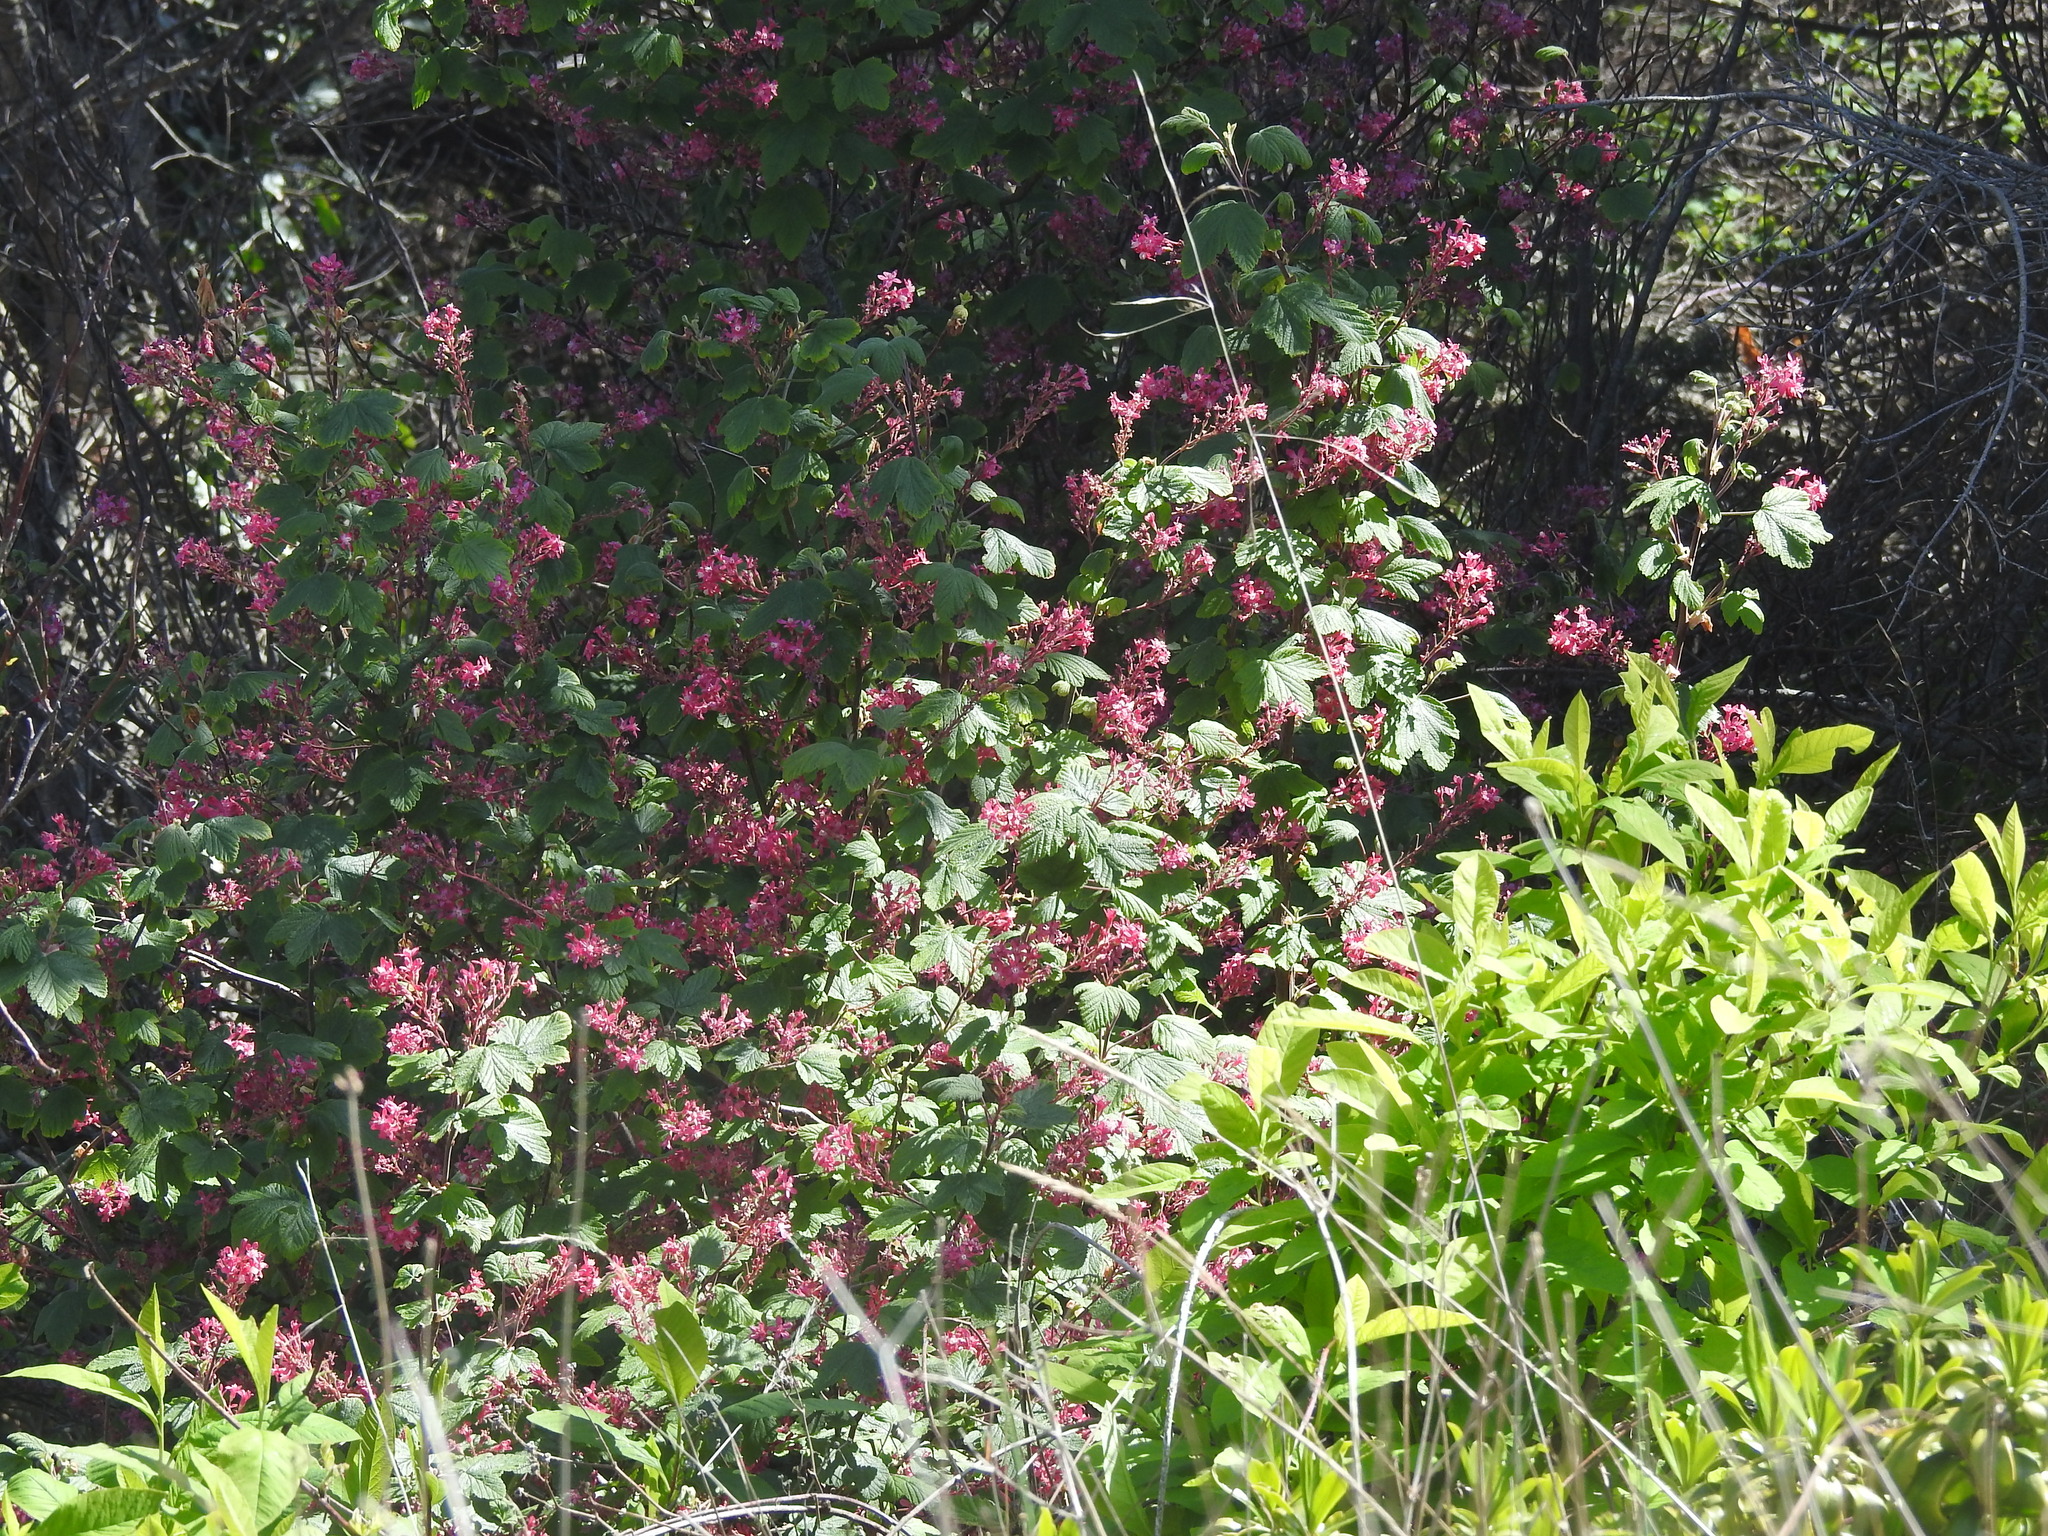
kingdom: Plantae
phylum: Tracheophyta
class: Magnoliopsida
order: Saxifragales
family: Grossulariaceae
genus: Ribes
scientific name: Ribes sanguineum
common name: Flowering currant
